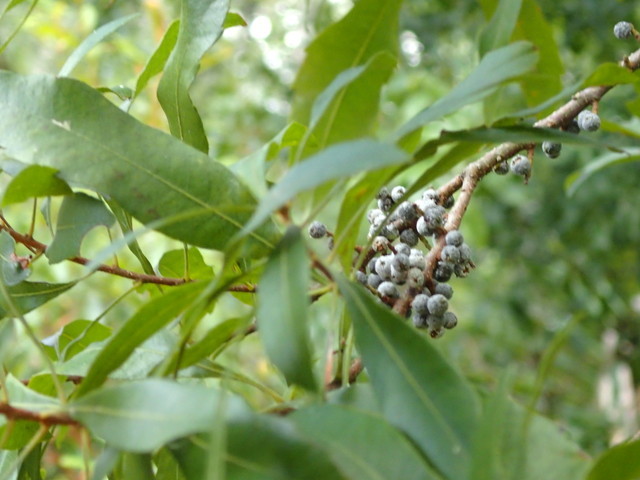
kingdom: Plantae
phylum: Tracheophyta
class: Magnoliopsida
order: Fagales
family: Myricaceae
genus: Morella
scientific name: Morella cerifera
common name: Wax myrtle
